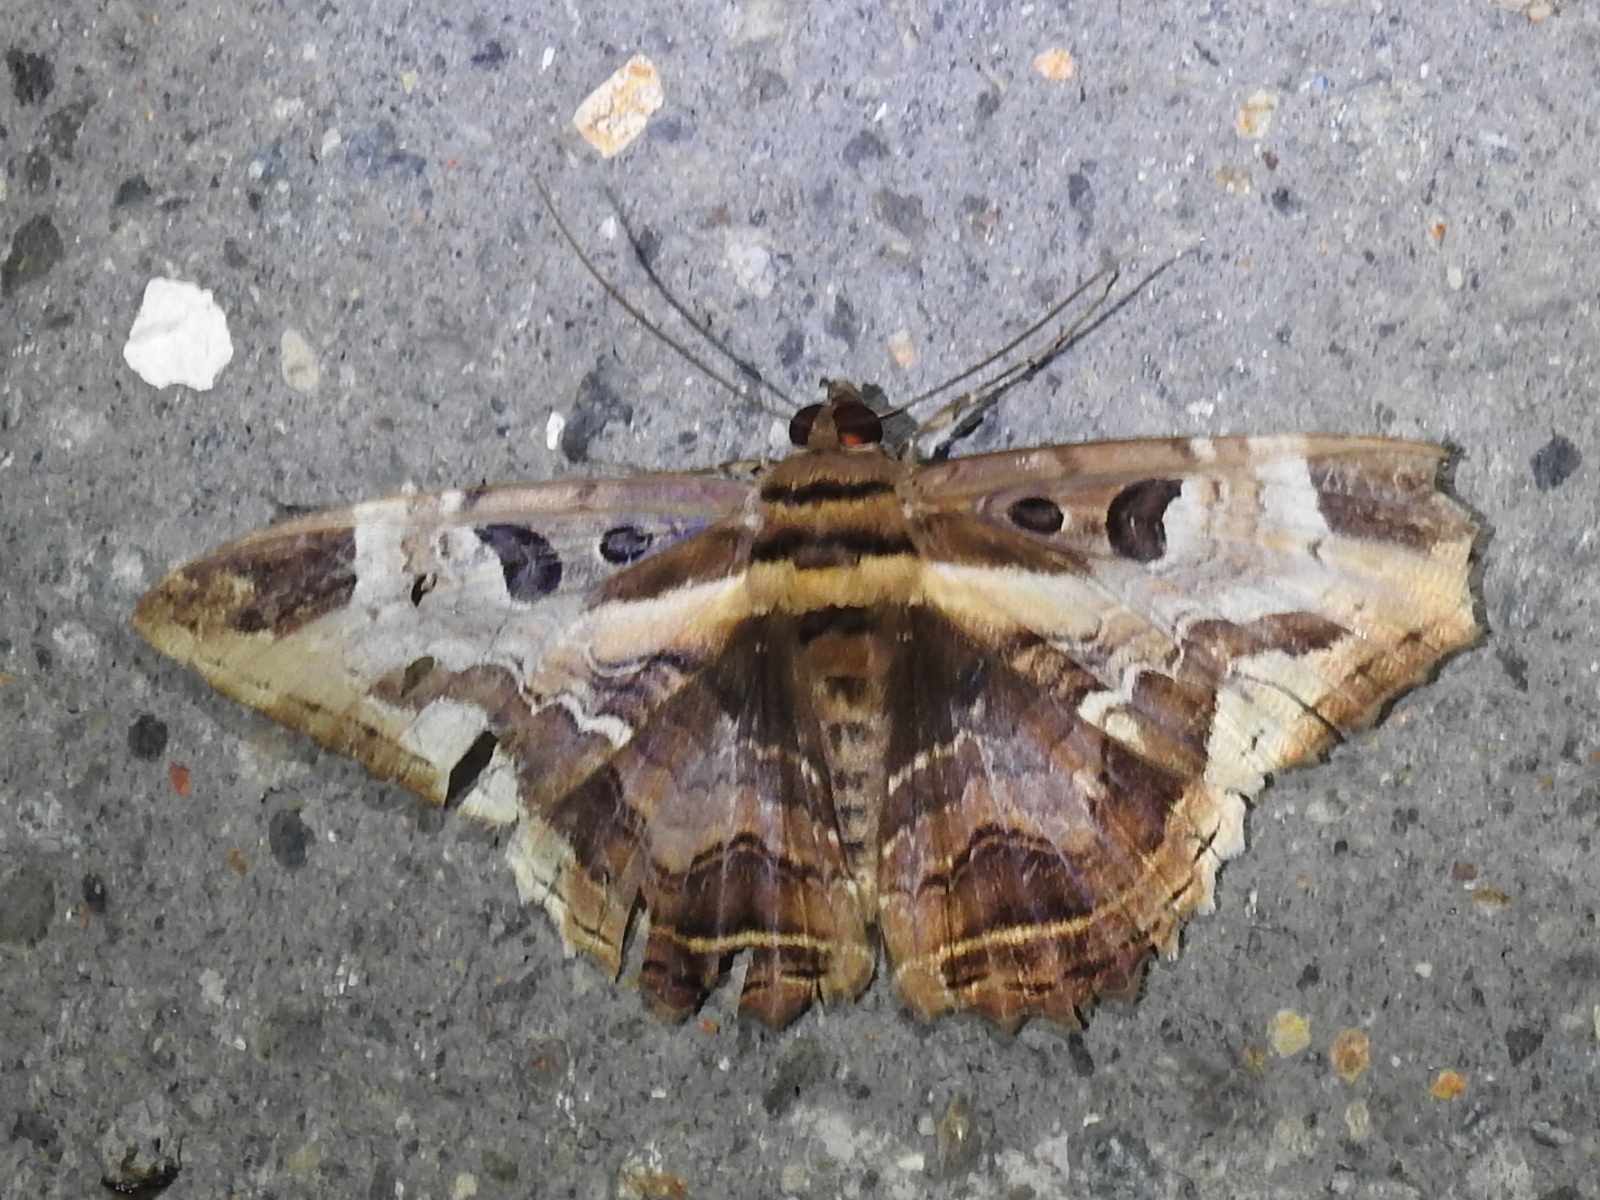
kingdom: Animalia
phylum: Arthropoda
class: Insecta
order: Lepidoptera
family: Erebidae
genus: Feigeria
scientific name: Feigeria herilia
